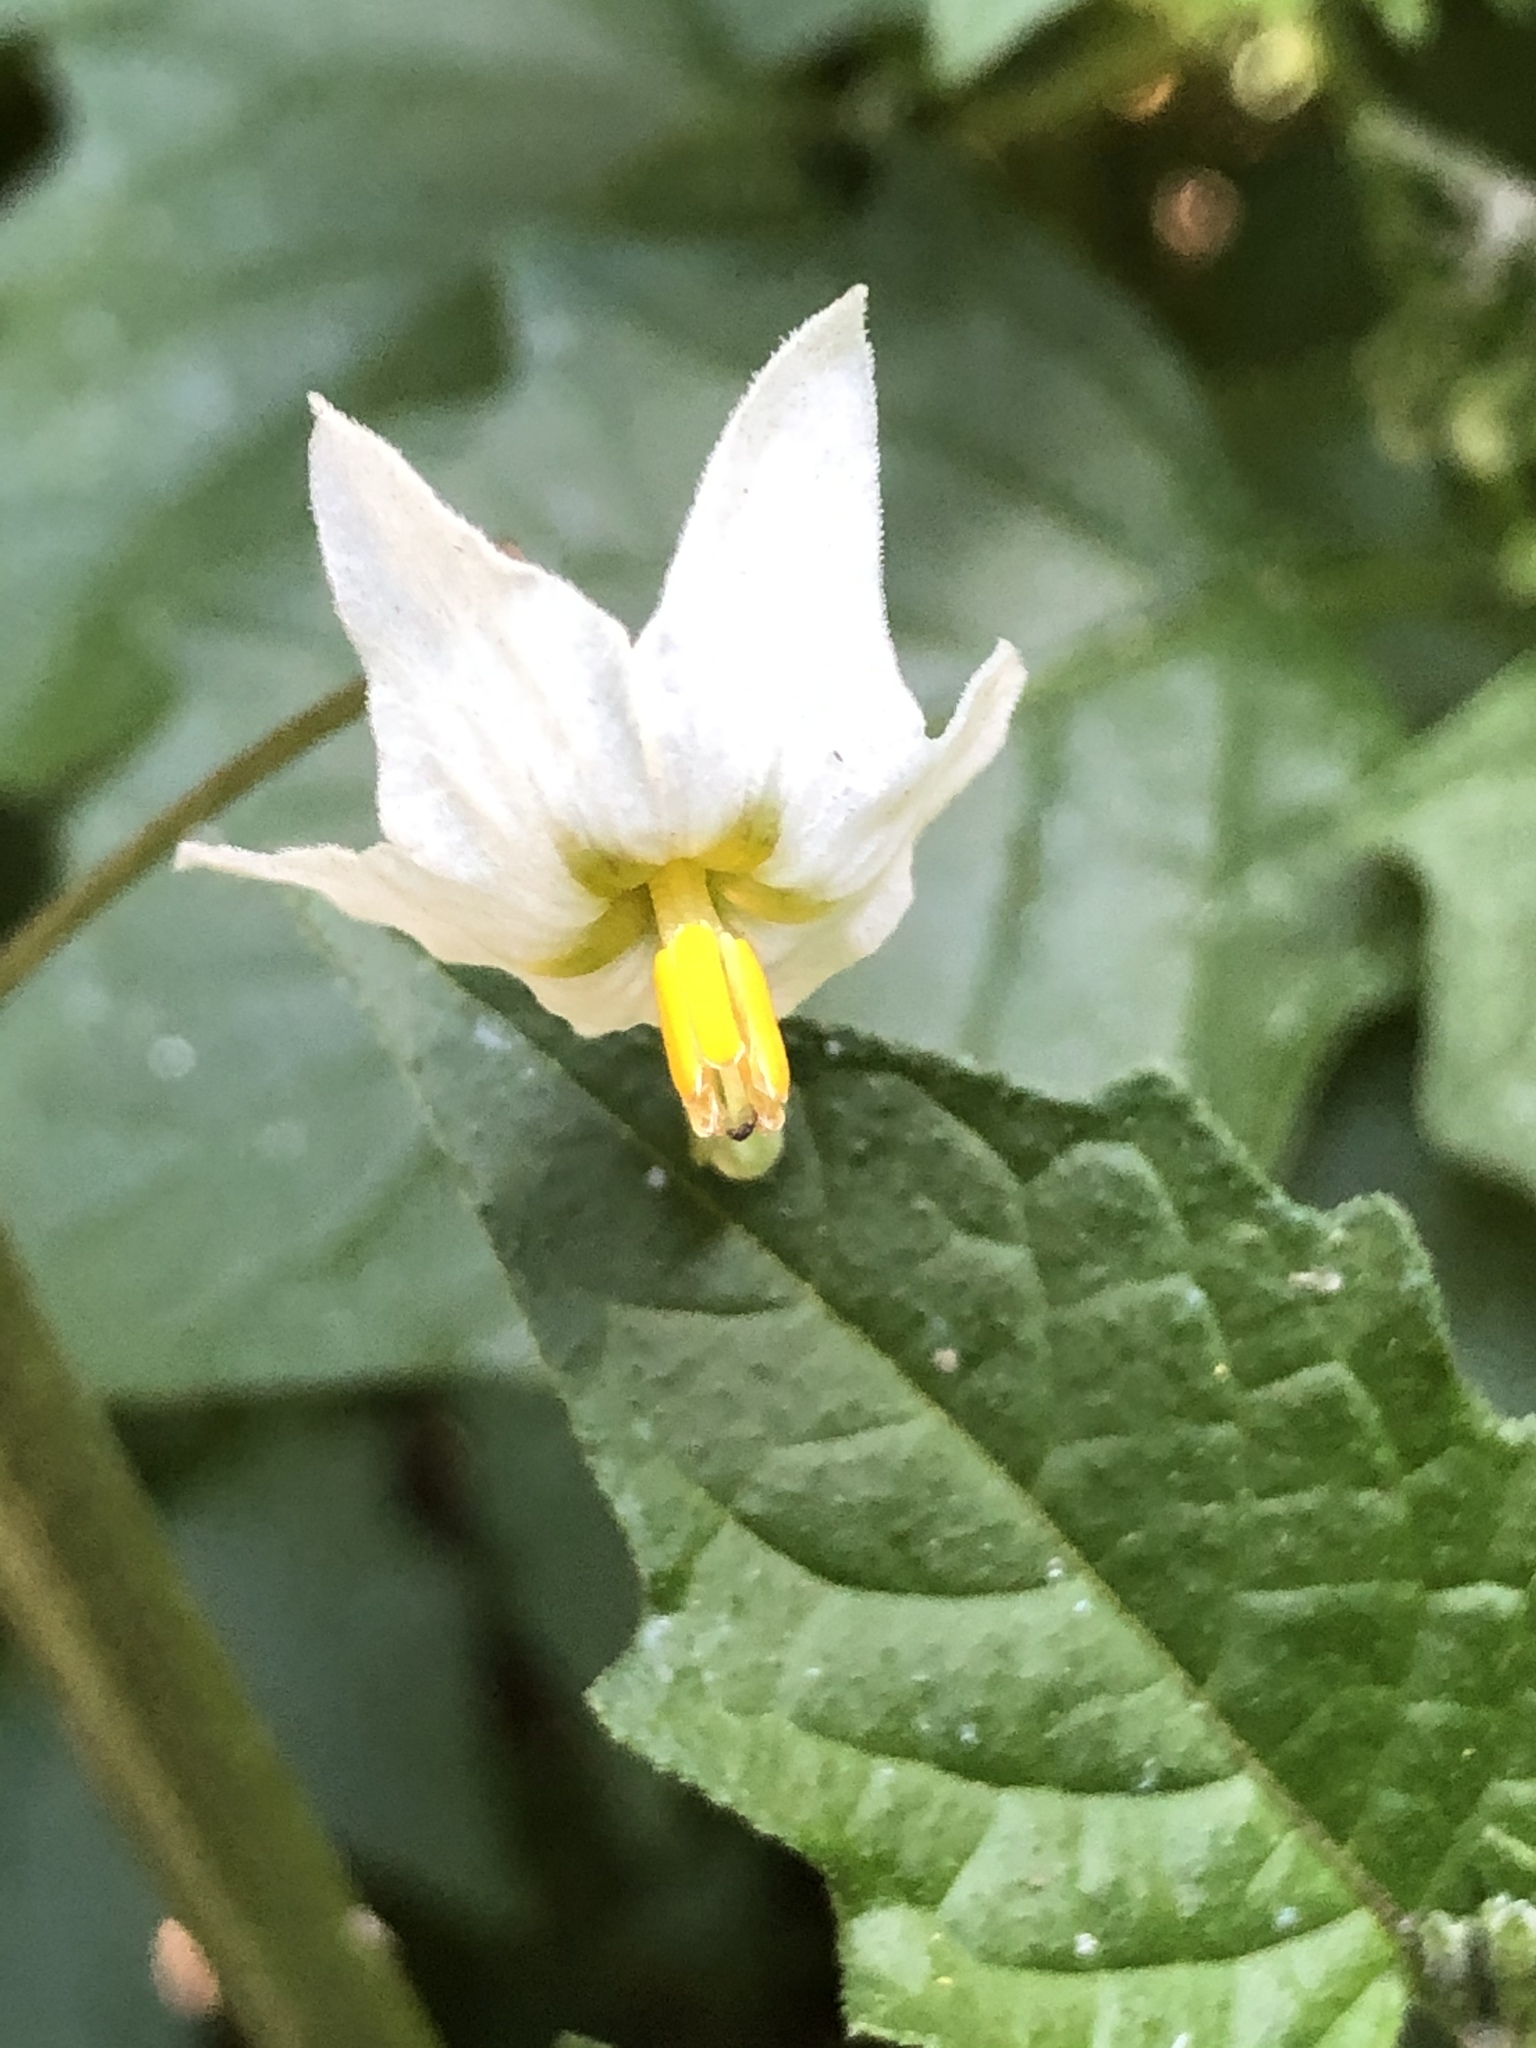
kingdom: Plantae
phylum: Tracheophyta
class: Magnoliopsida
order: Solanales
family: Solanaceae
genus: Solanum
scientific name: Solanum furcatum
